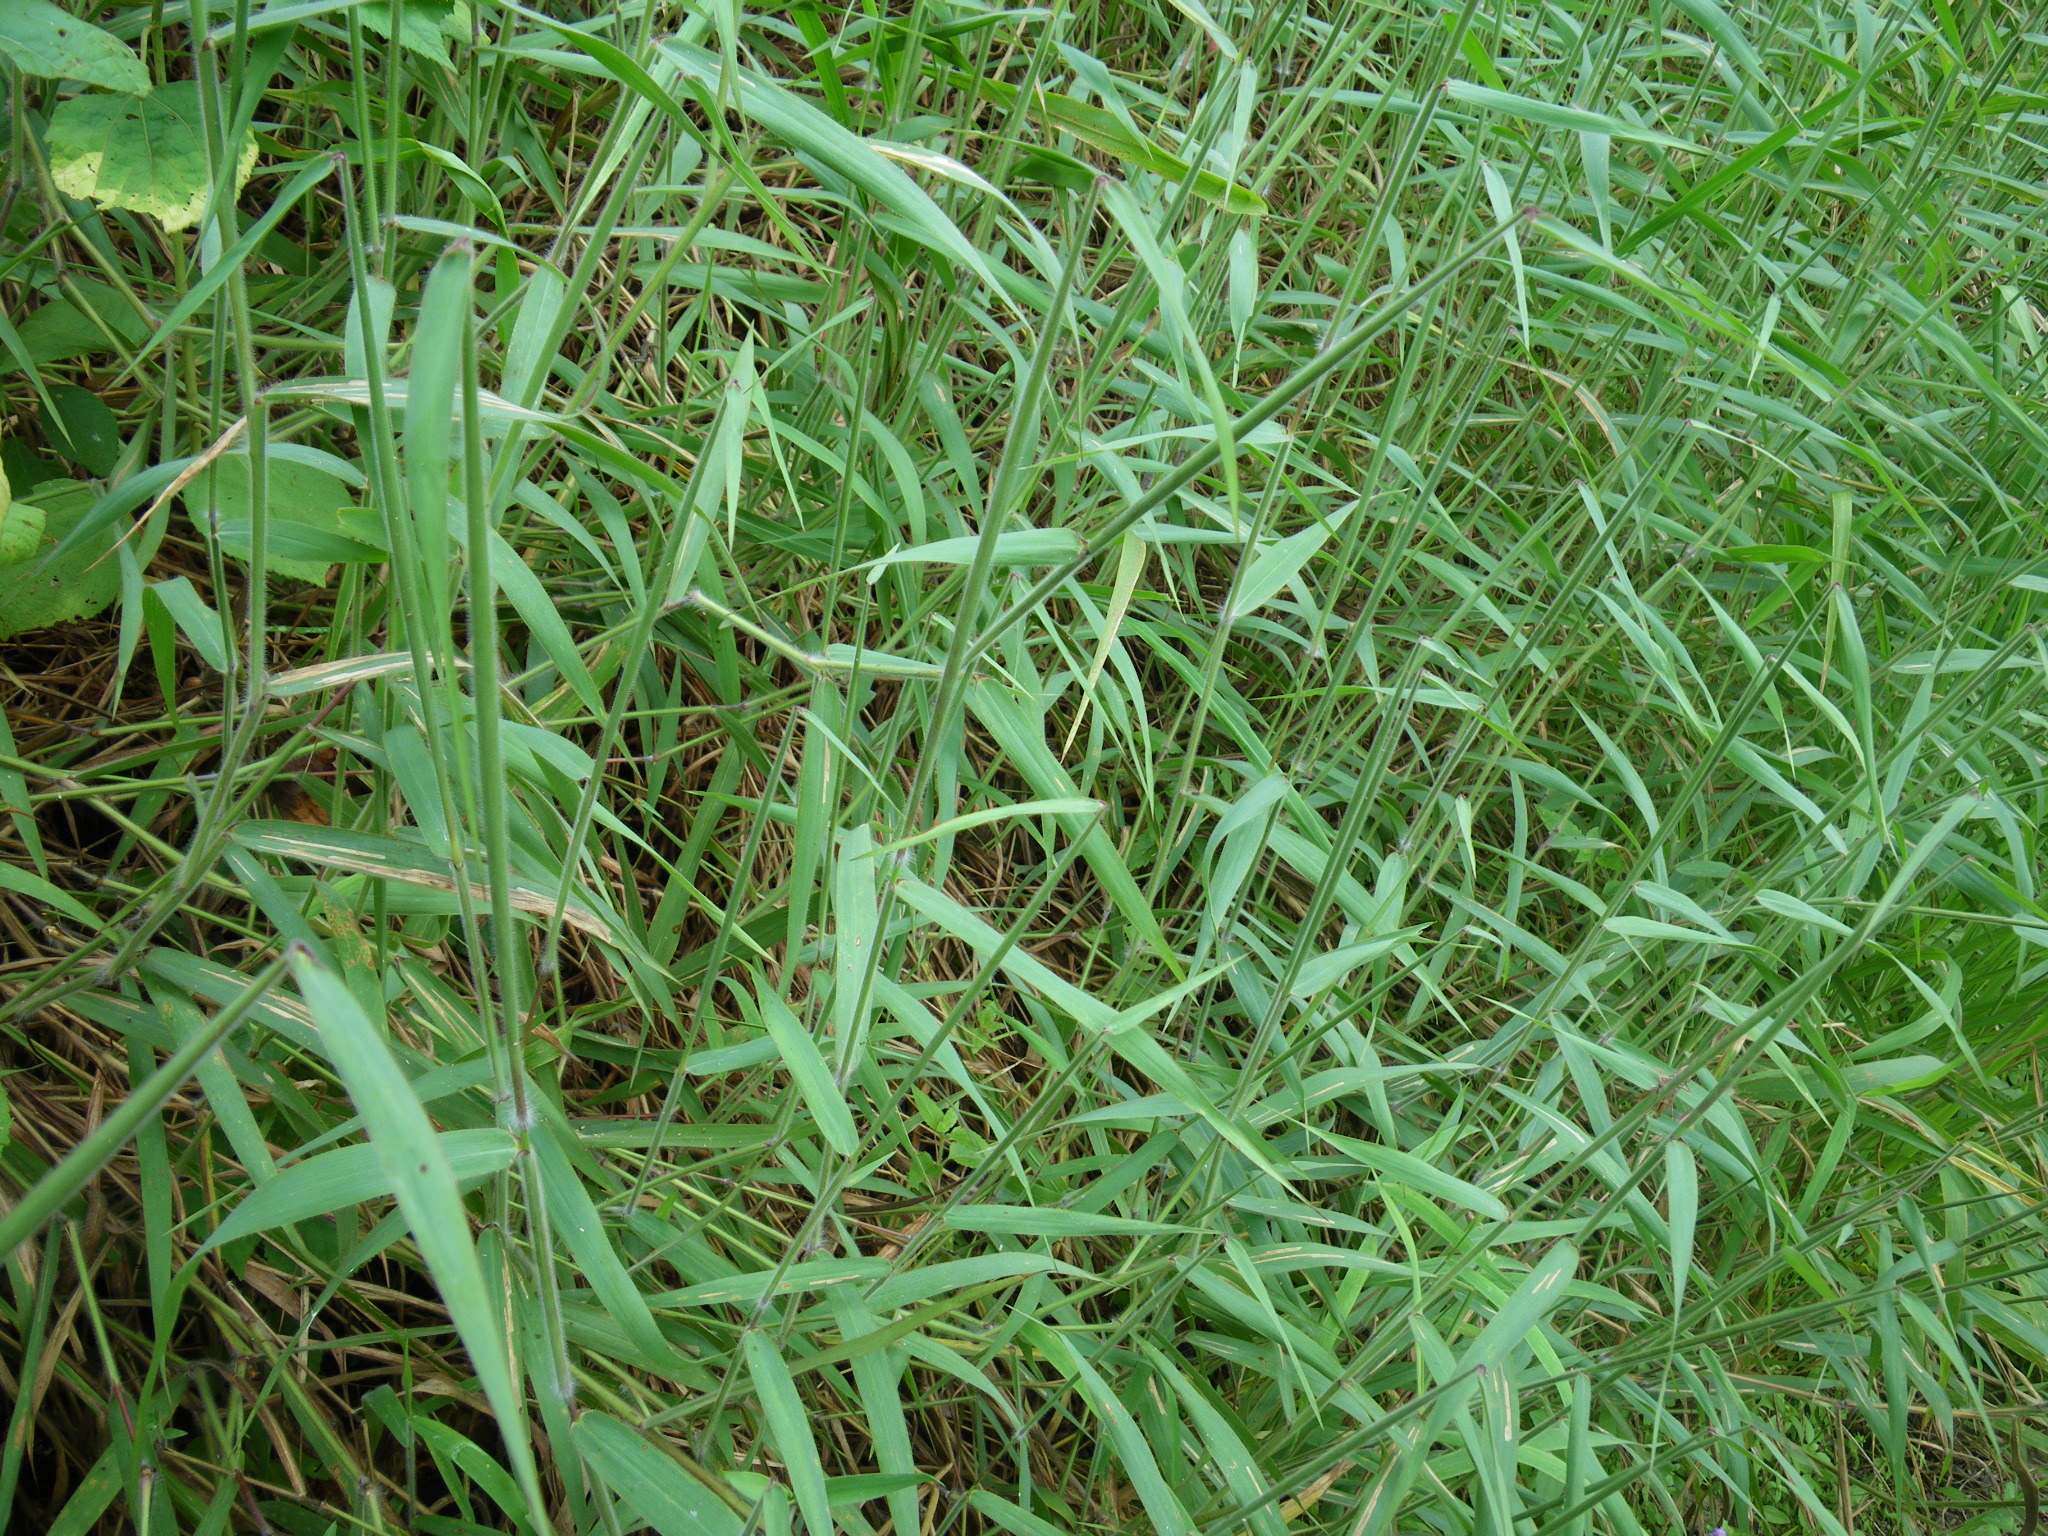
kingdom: Plantae
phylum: Tracheophyta
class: Liliopsida
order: Poales
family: Poaceae
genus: Melinis
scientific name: Melinis minutiflora
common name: Molassesgrass
